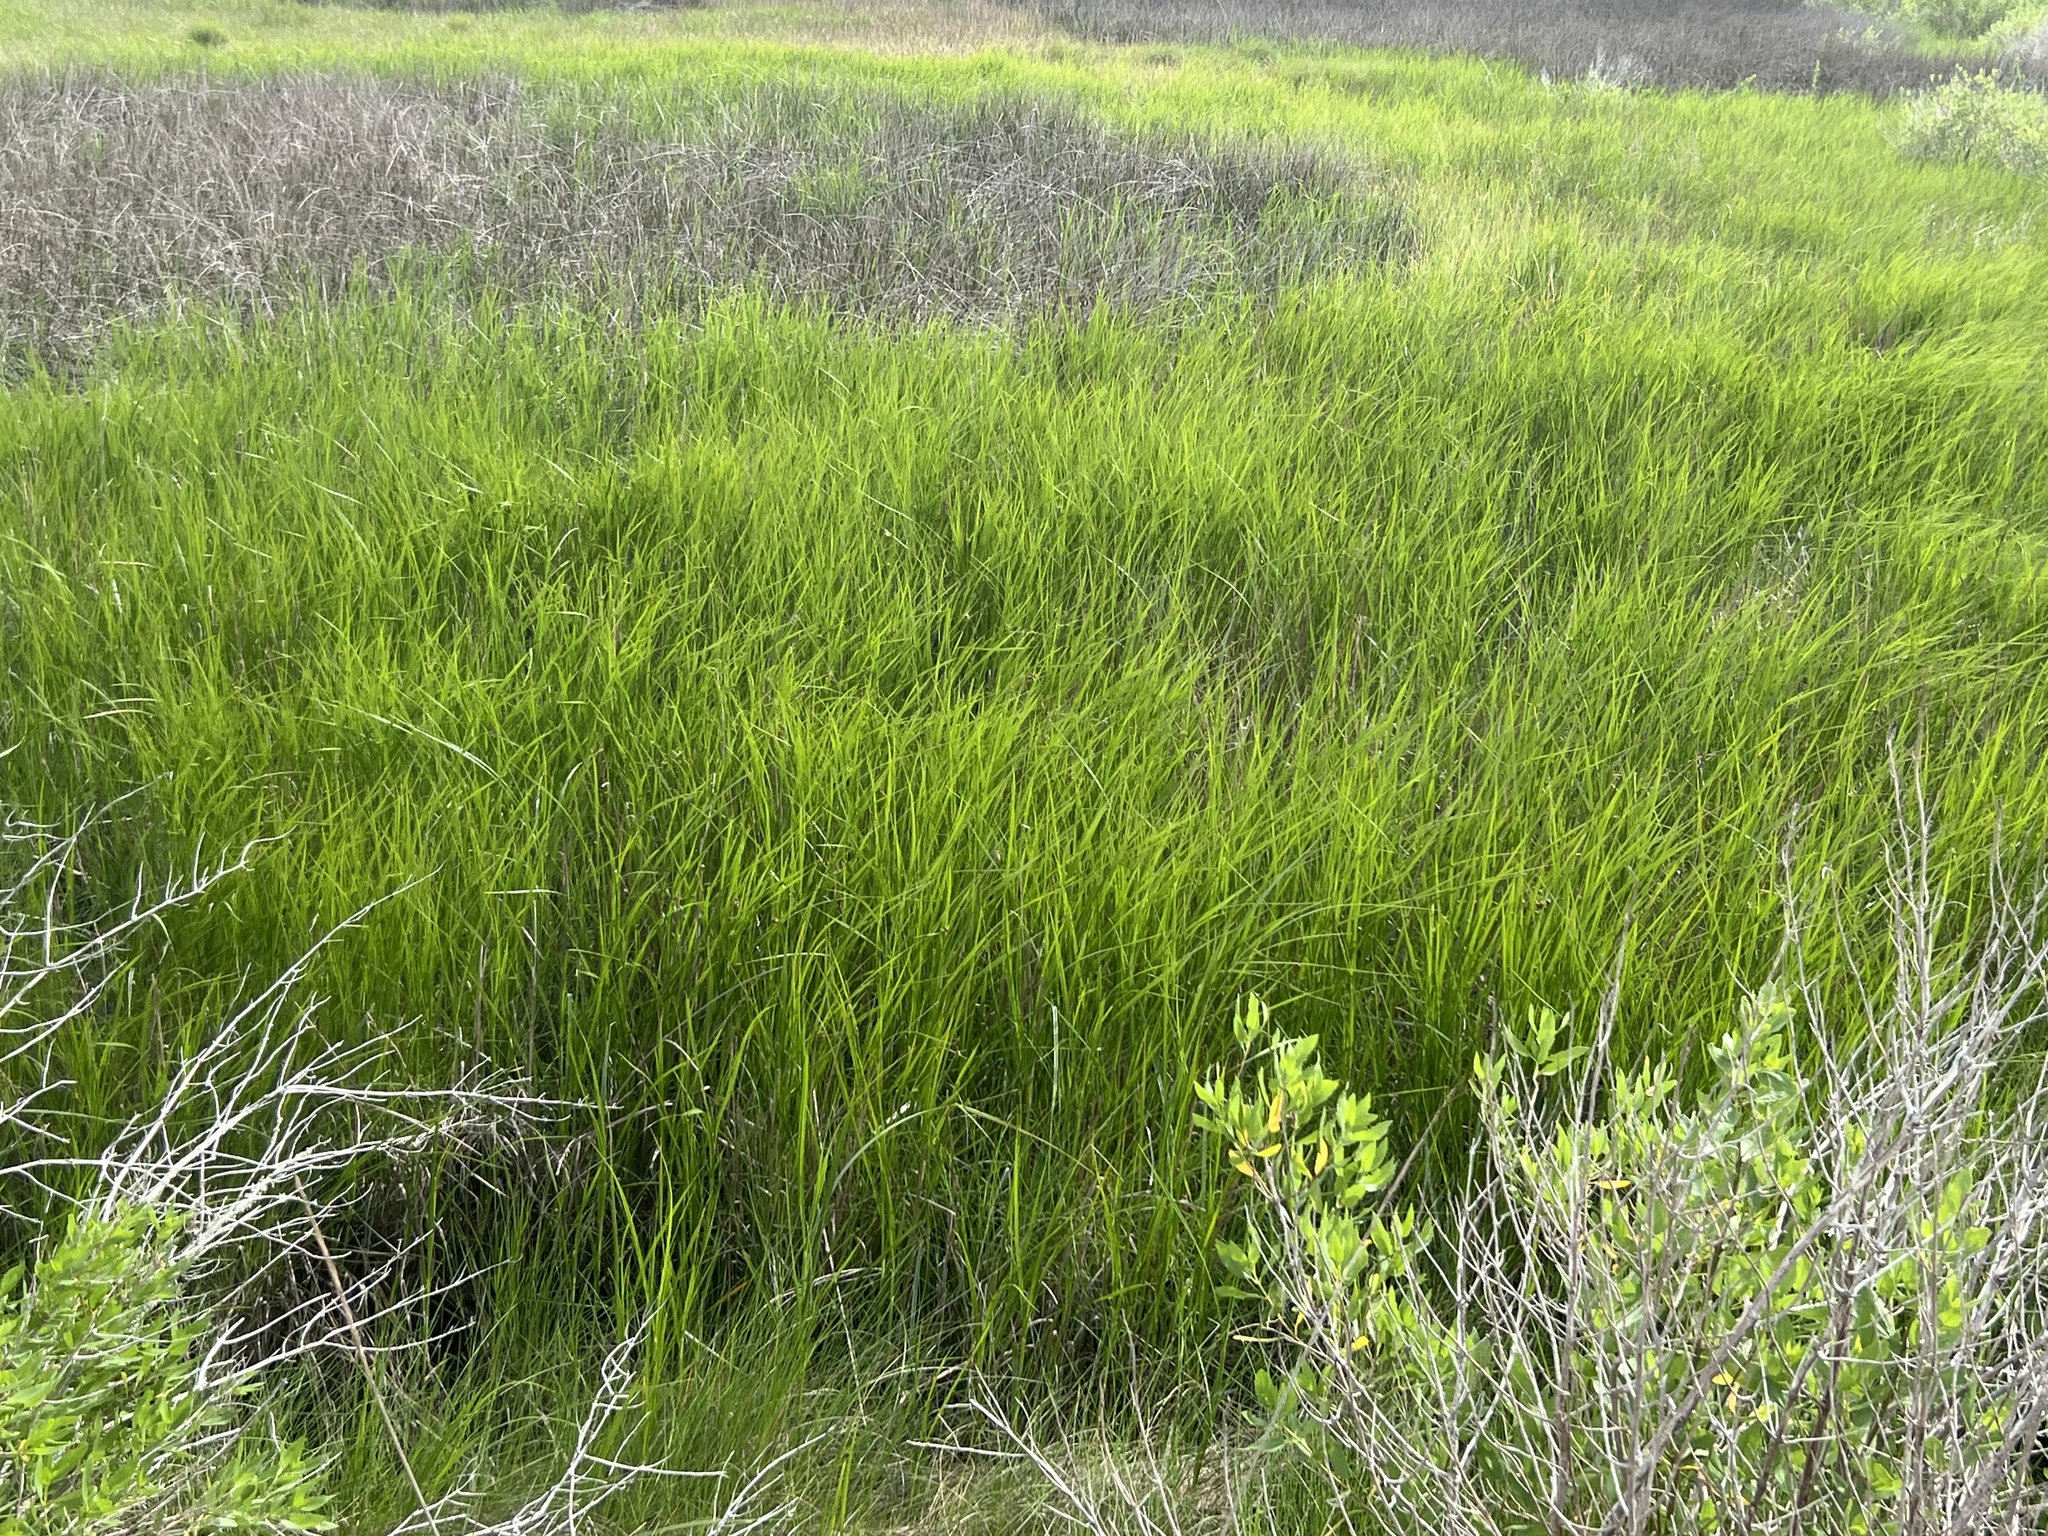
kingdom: Plantae
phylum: Tracheophyta
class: Liliopsida
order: Poales
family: Poaceae
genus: Sporobolus
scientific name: Sporobolus alterniflorus
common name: Atlantic cordgrass
